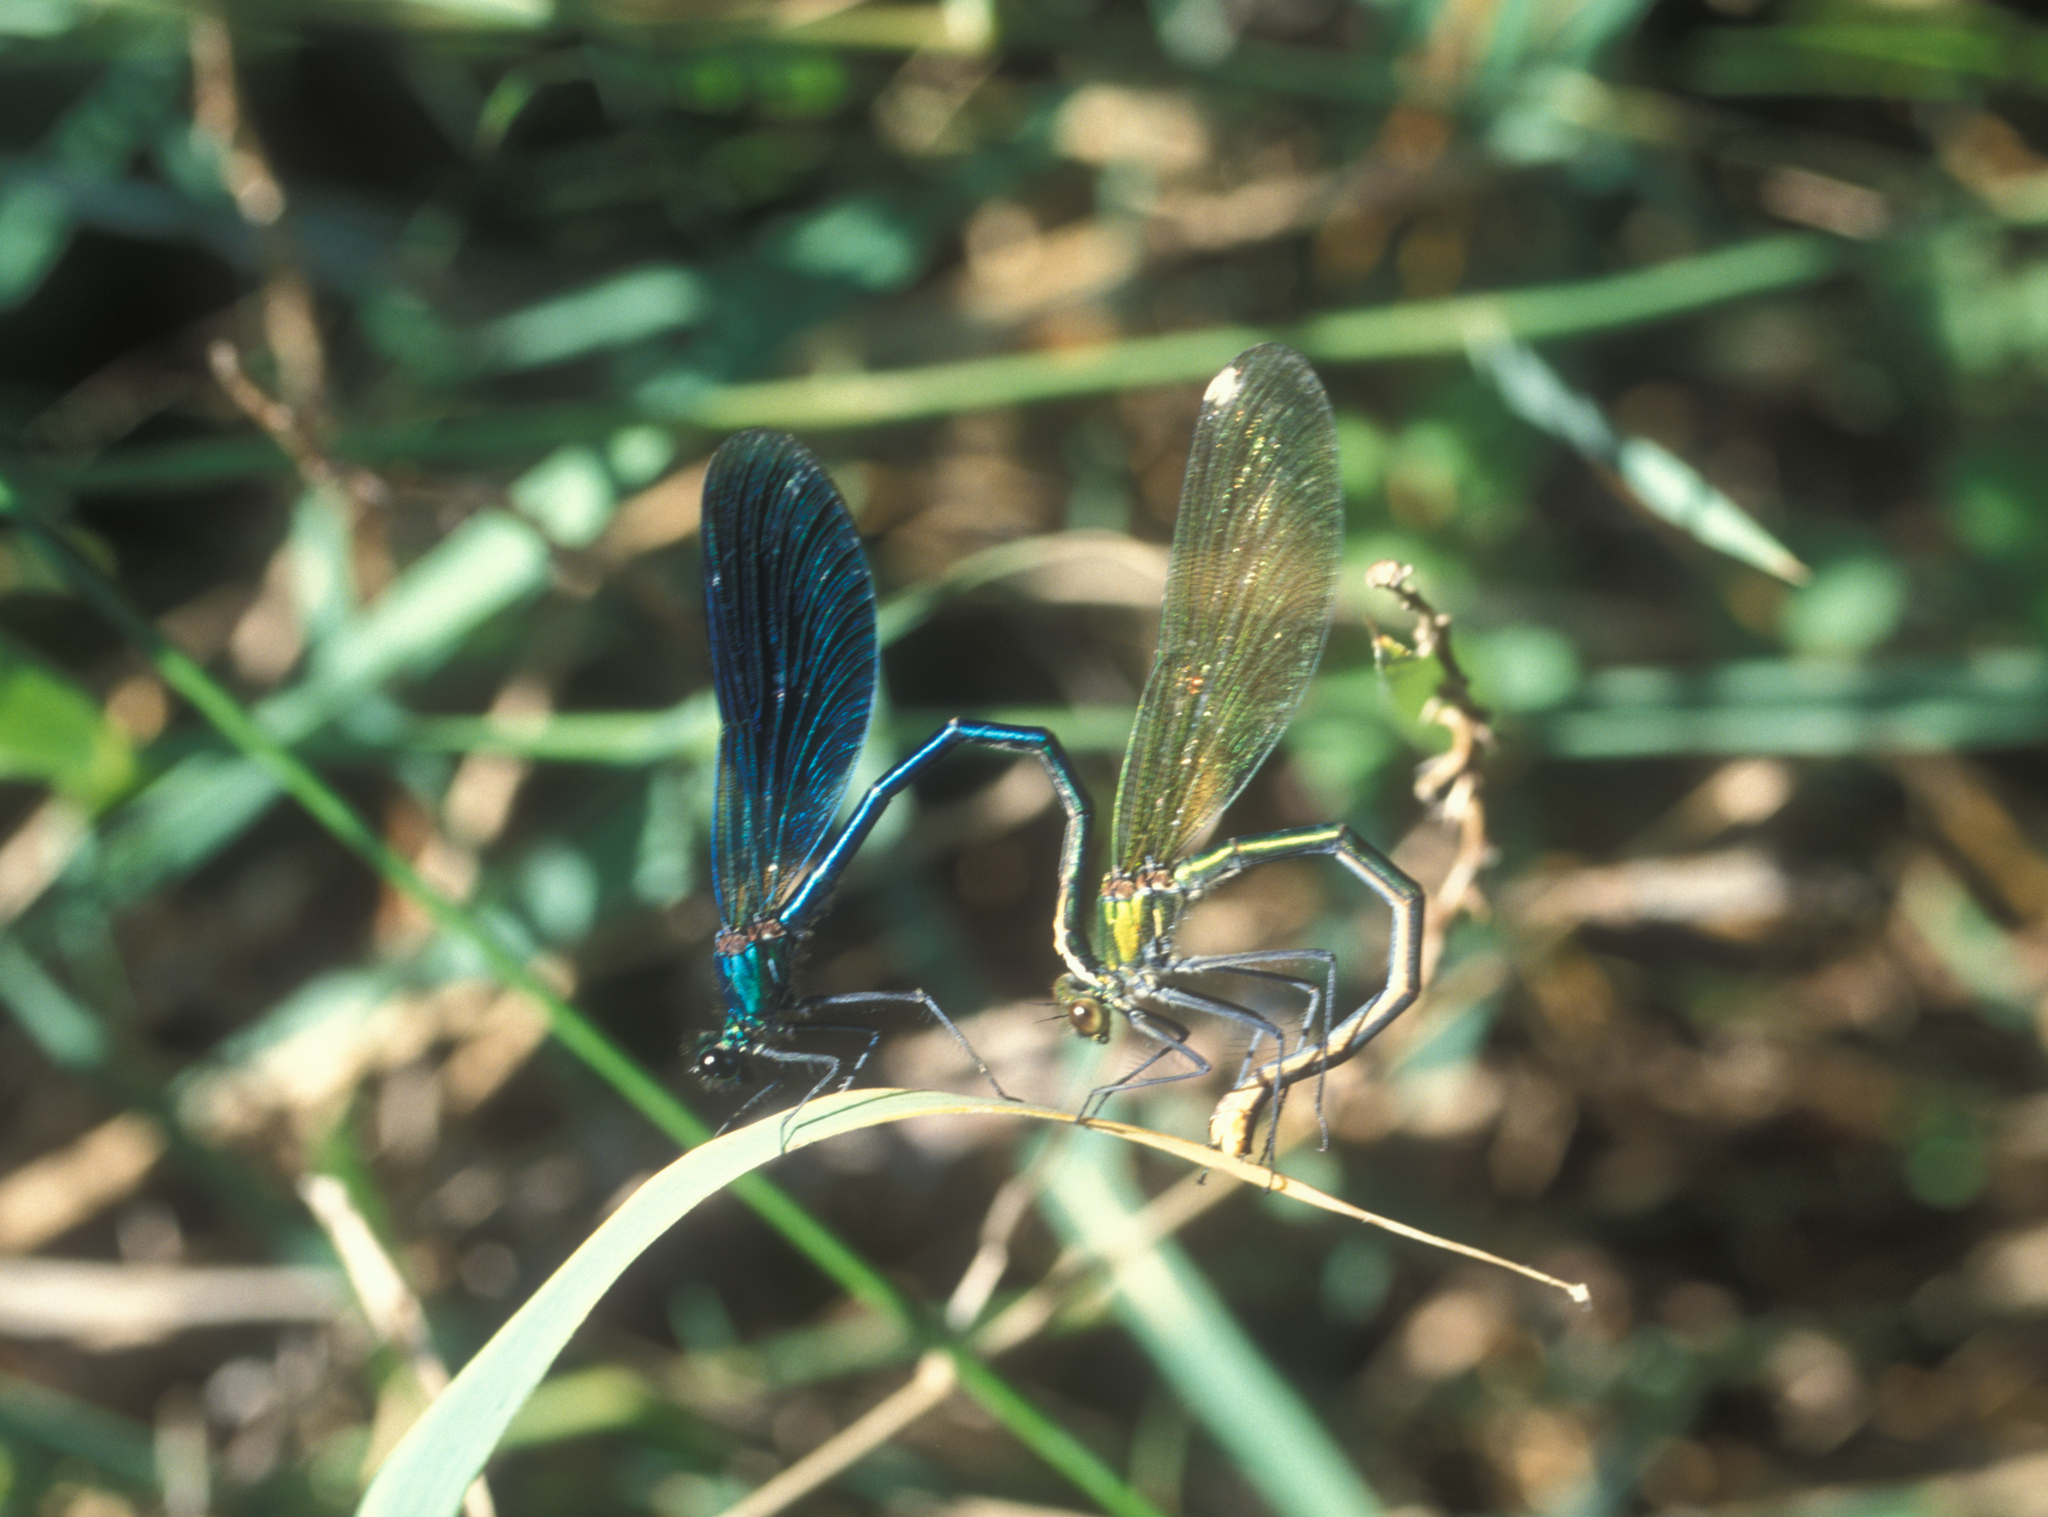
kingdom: Animalia
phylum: Arthropoda
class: Insecta
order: Odonata
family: Calopterygidae
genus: Calopteryx
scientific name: Calopteryx splendens
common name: Banded demoiselle
